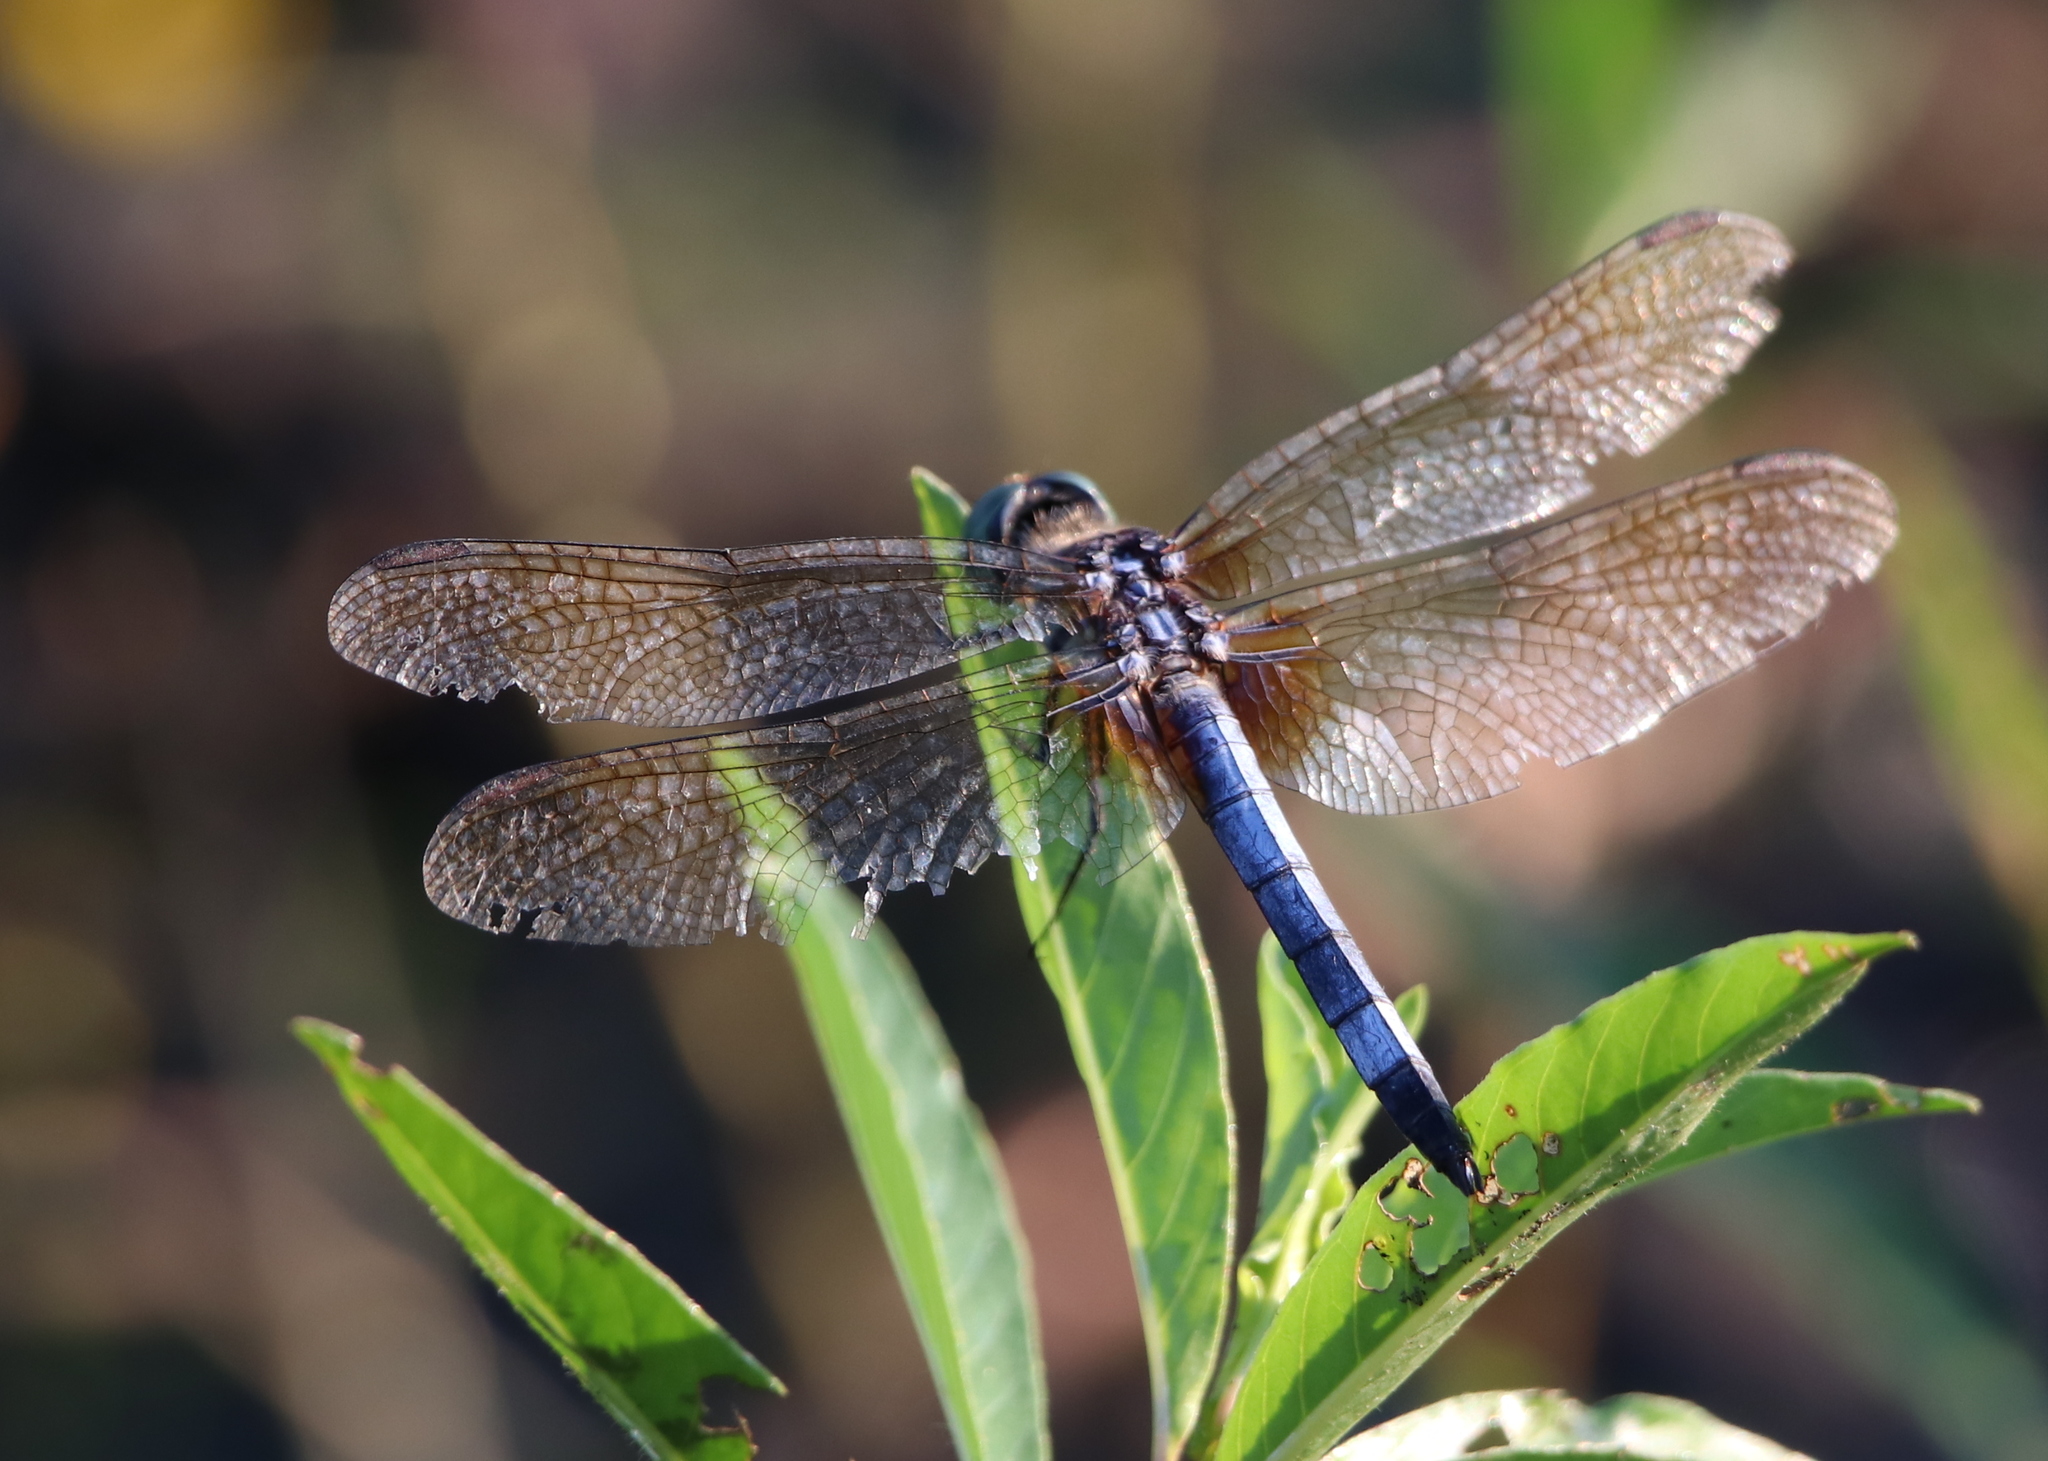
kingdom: Animalia
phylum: Arthropoda
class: Insecta
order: Odonata
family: Libellulidae
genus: Pachydiplax
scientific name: Pachydiplax longipennis
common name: Blue dasher
